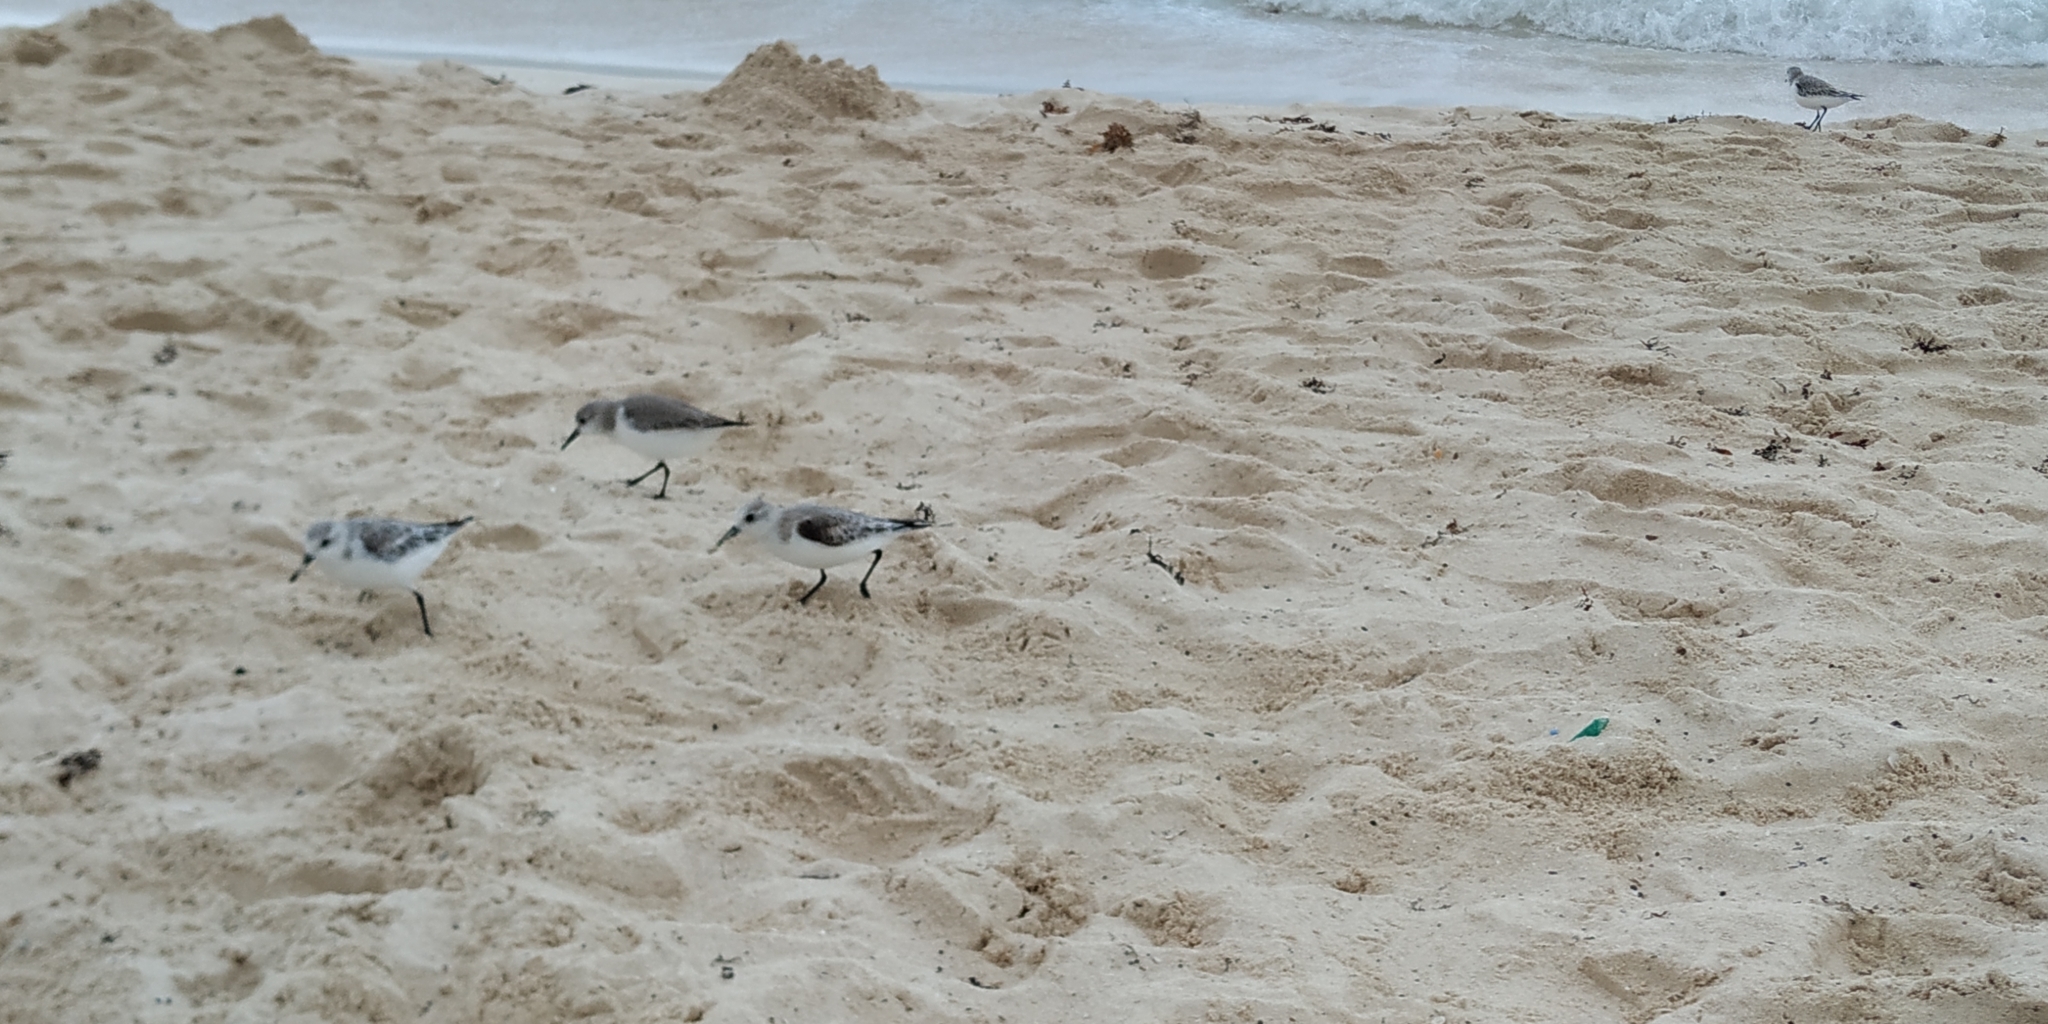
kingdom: Animalia
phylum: Chordata
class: Aves
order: Charadriiformes
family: Scolopacidae
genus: Calidris
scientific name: Calidris alba
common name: Sanderling
